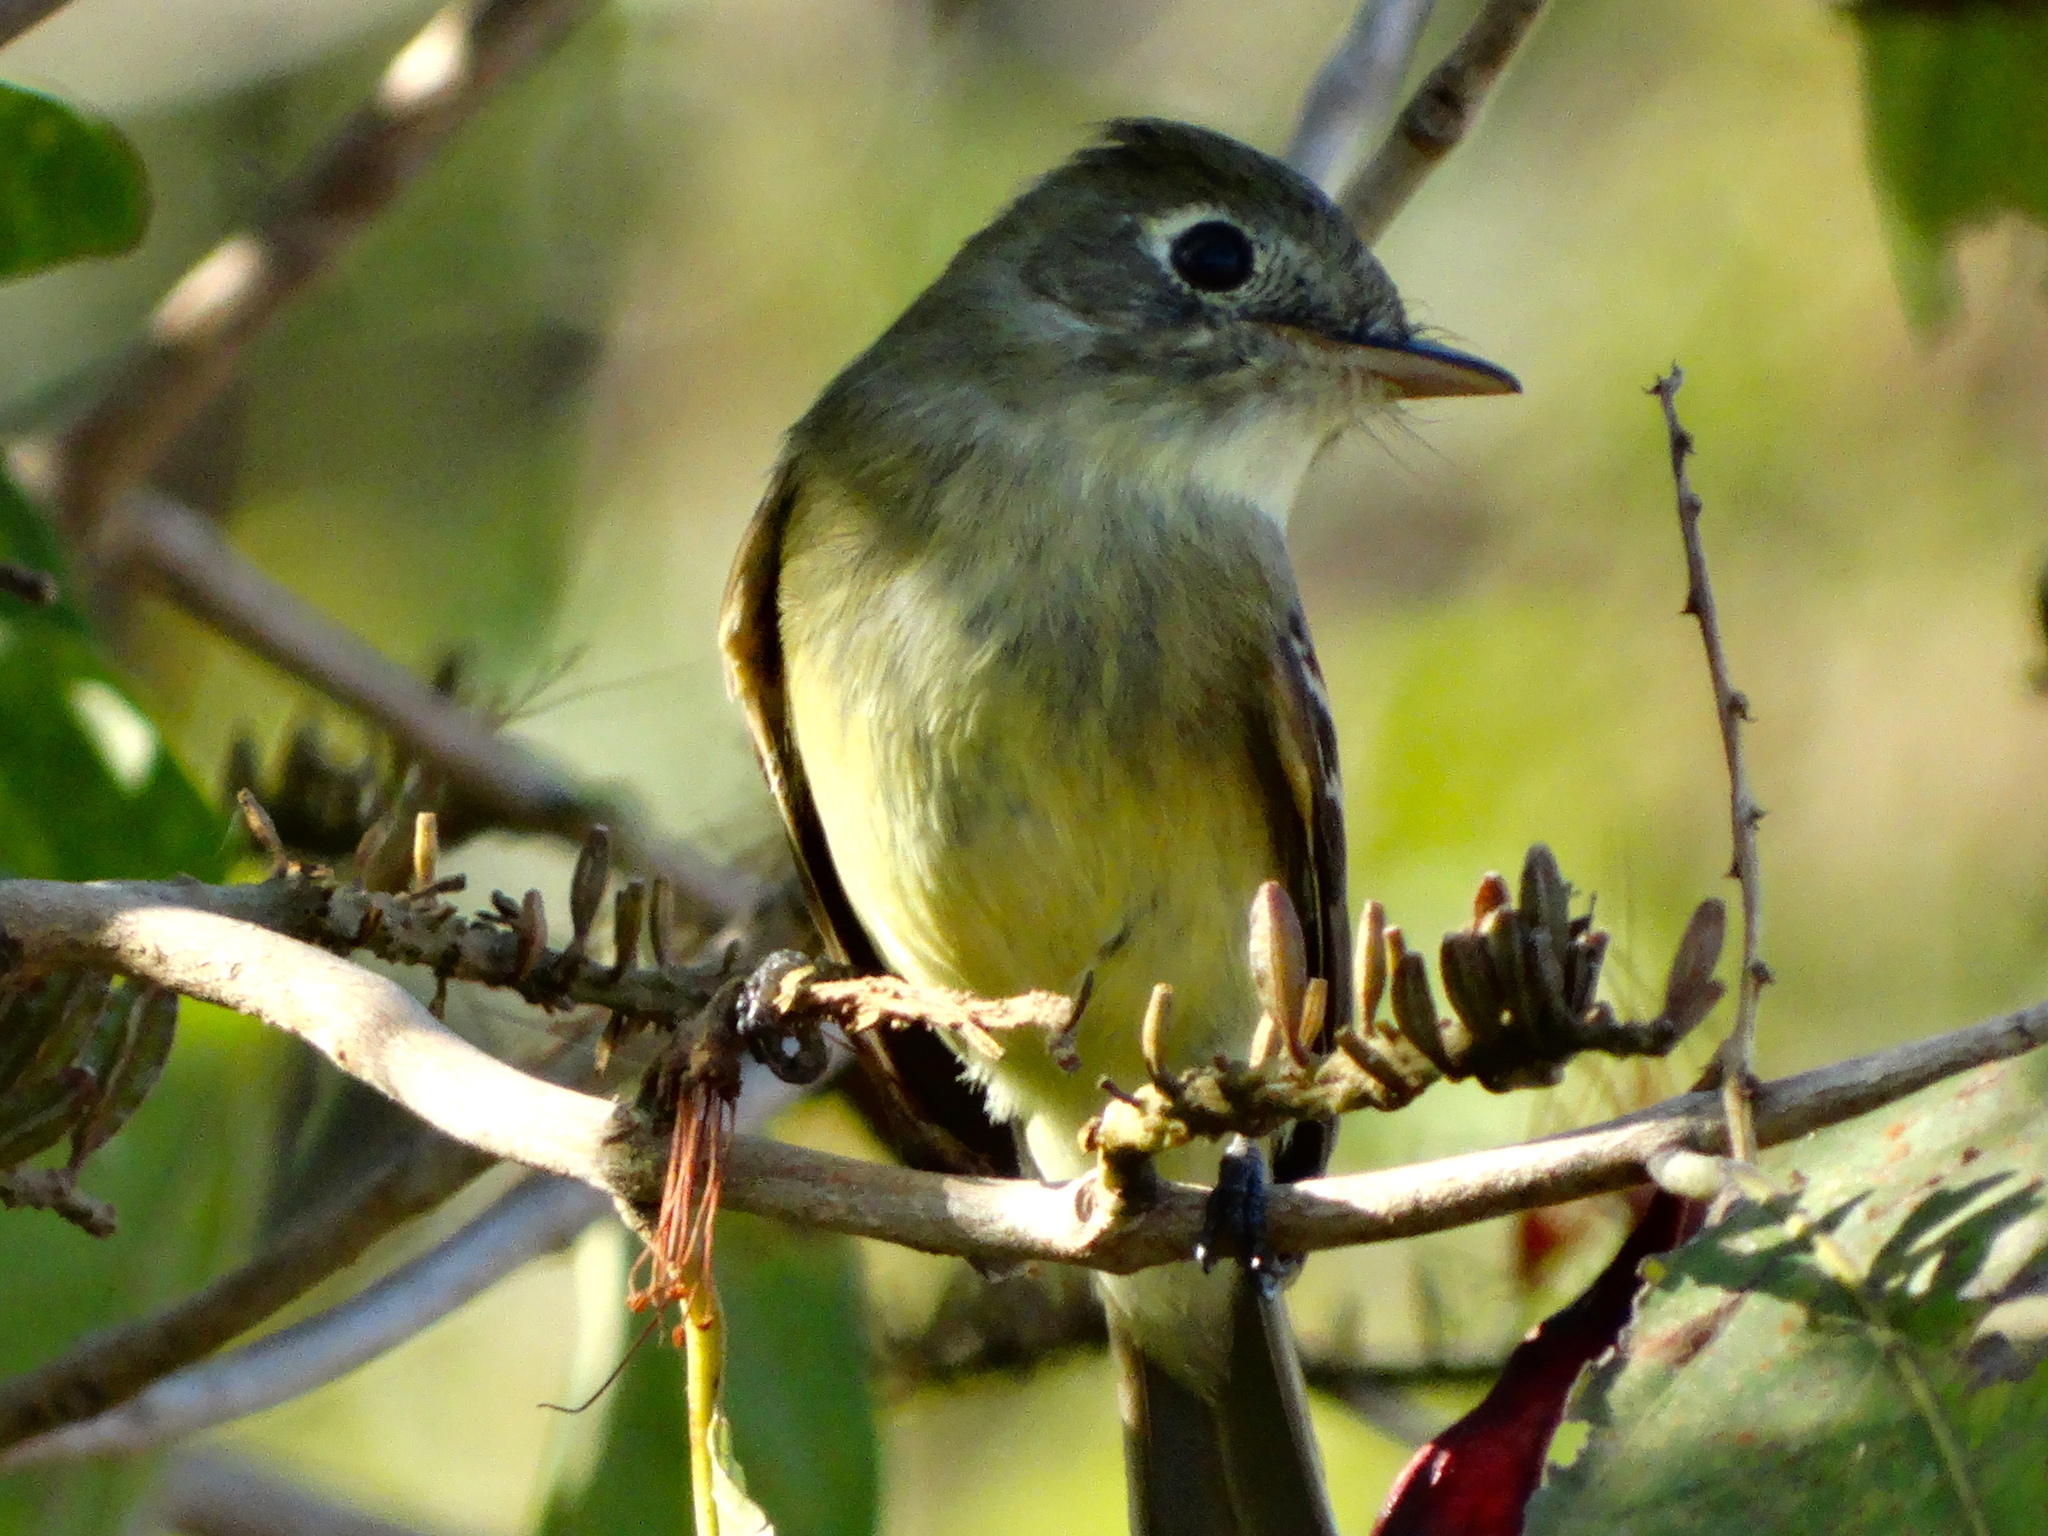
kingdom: Animalia
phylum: Chordata
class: Aves
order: Passeriformes
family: Tyrannidae
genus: Empidonax
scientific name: Empidonax
